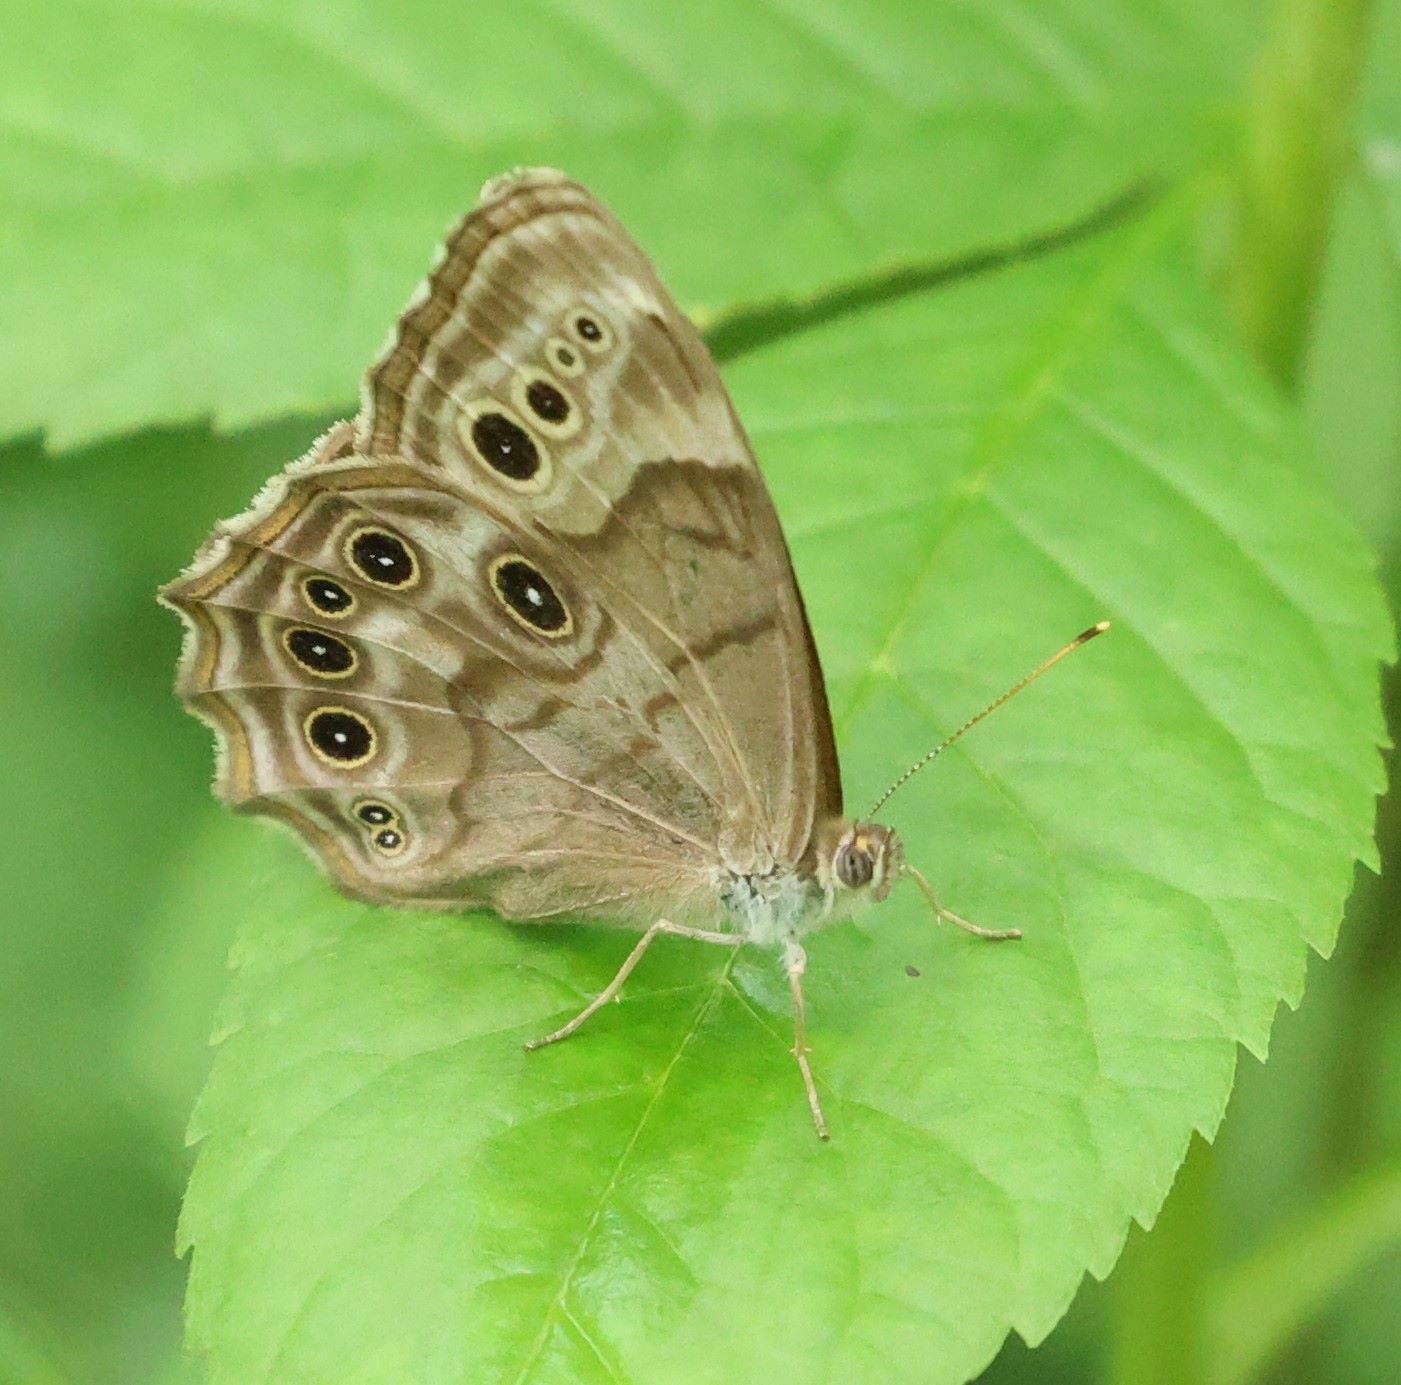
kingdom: Animalia
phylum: Arthropoda
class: Insecta
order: Lepidoptera
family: Nymphalidae
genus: Lethe
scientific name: Lethe anthedon
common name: Northern pearly-eye
